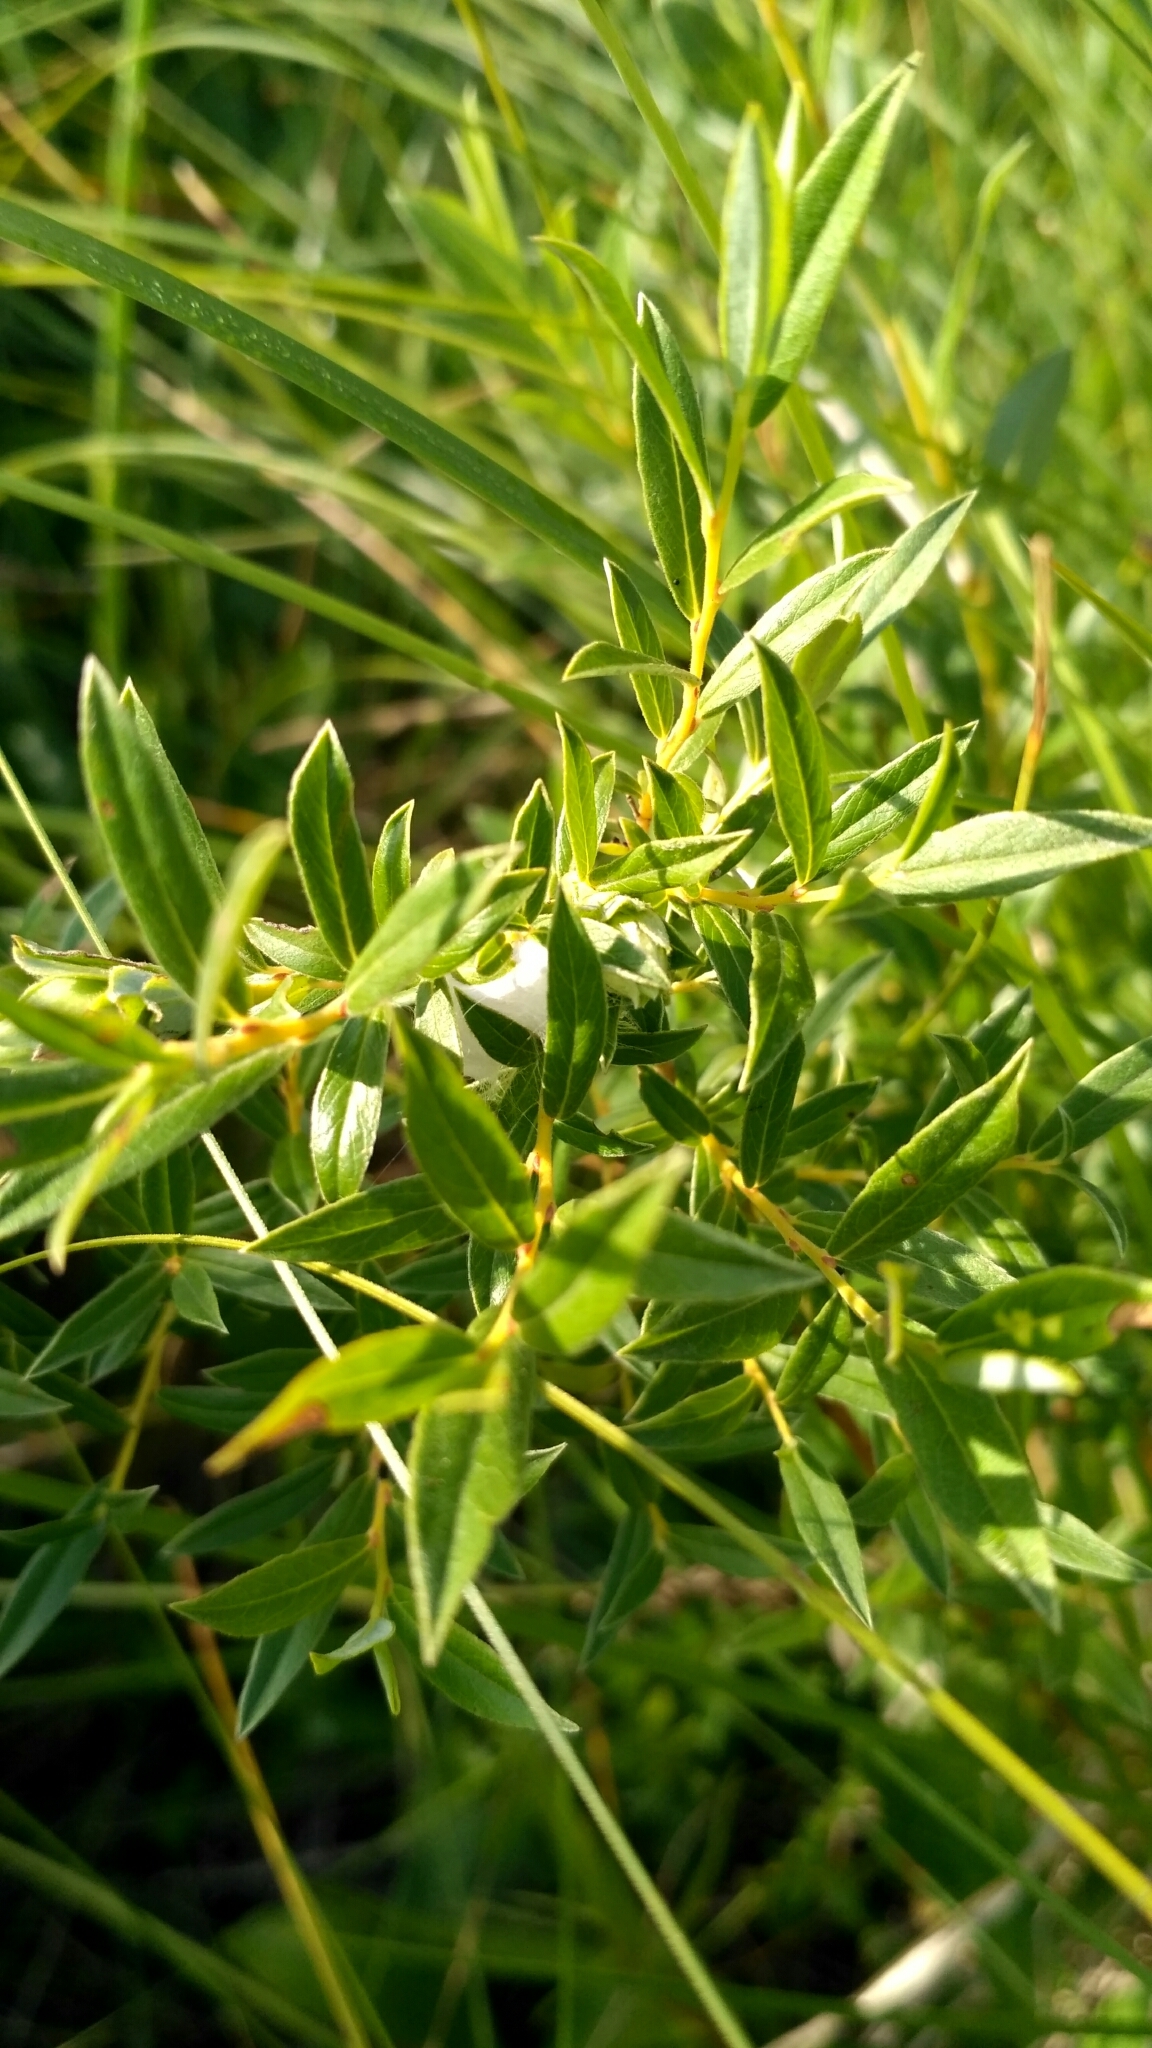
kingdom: Plantae
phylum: Tracheophyta
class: Magnoliopsida
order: Malpighiales
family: Salicaceae
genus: Salix
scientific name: Salix rosmarinifolia
